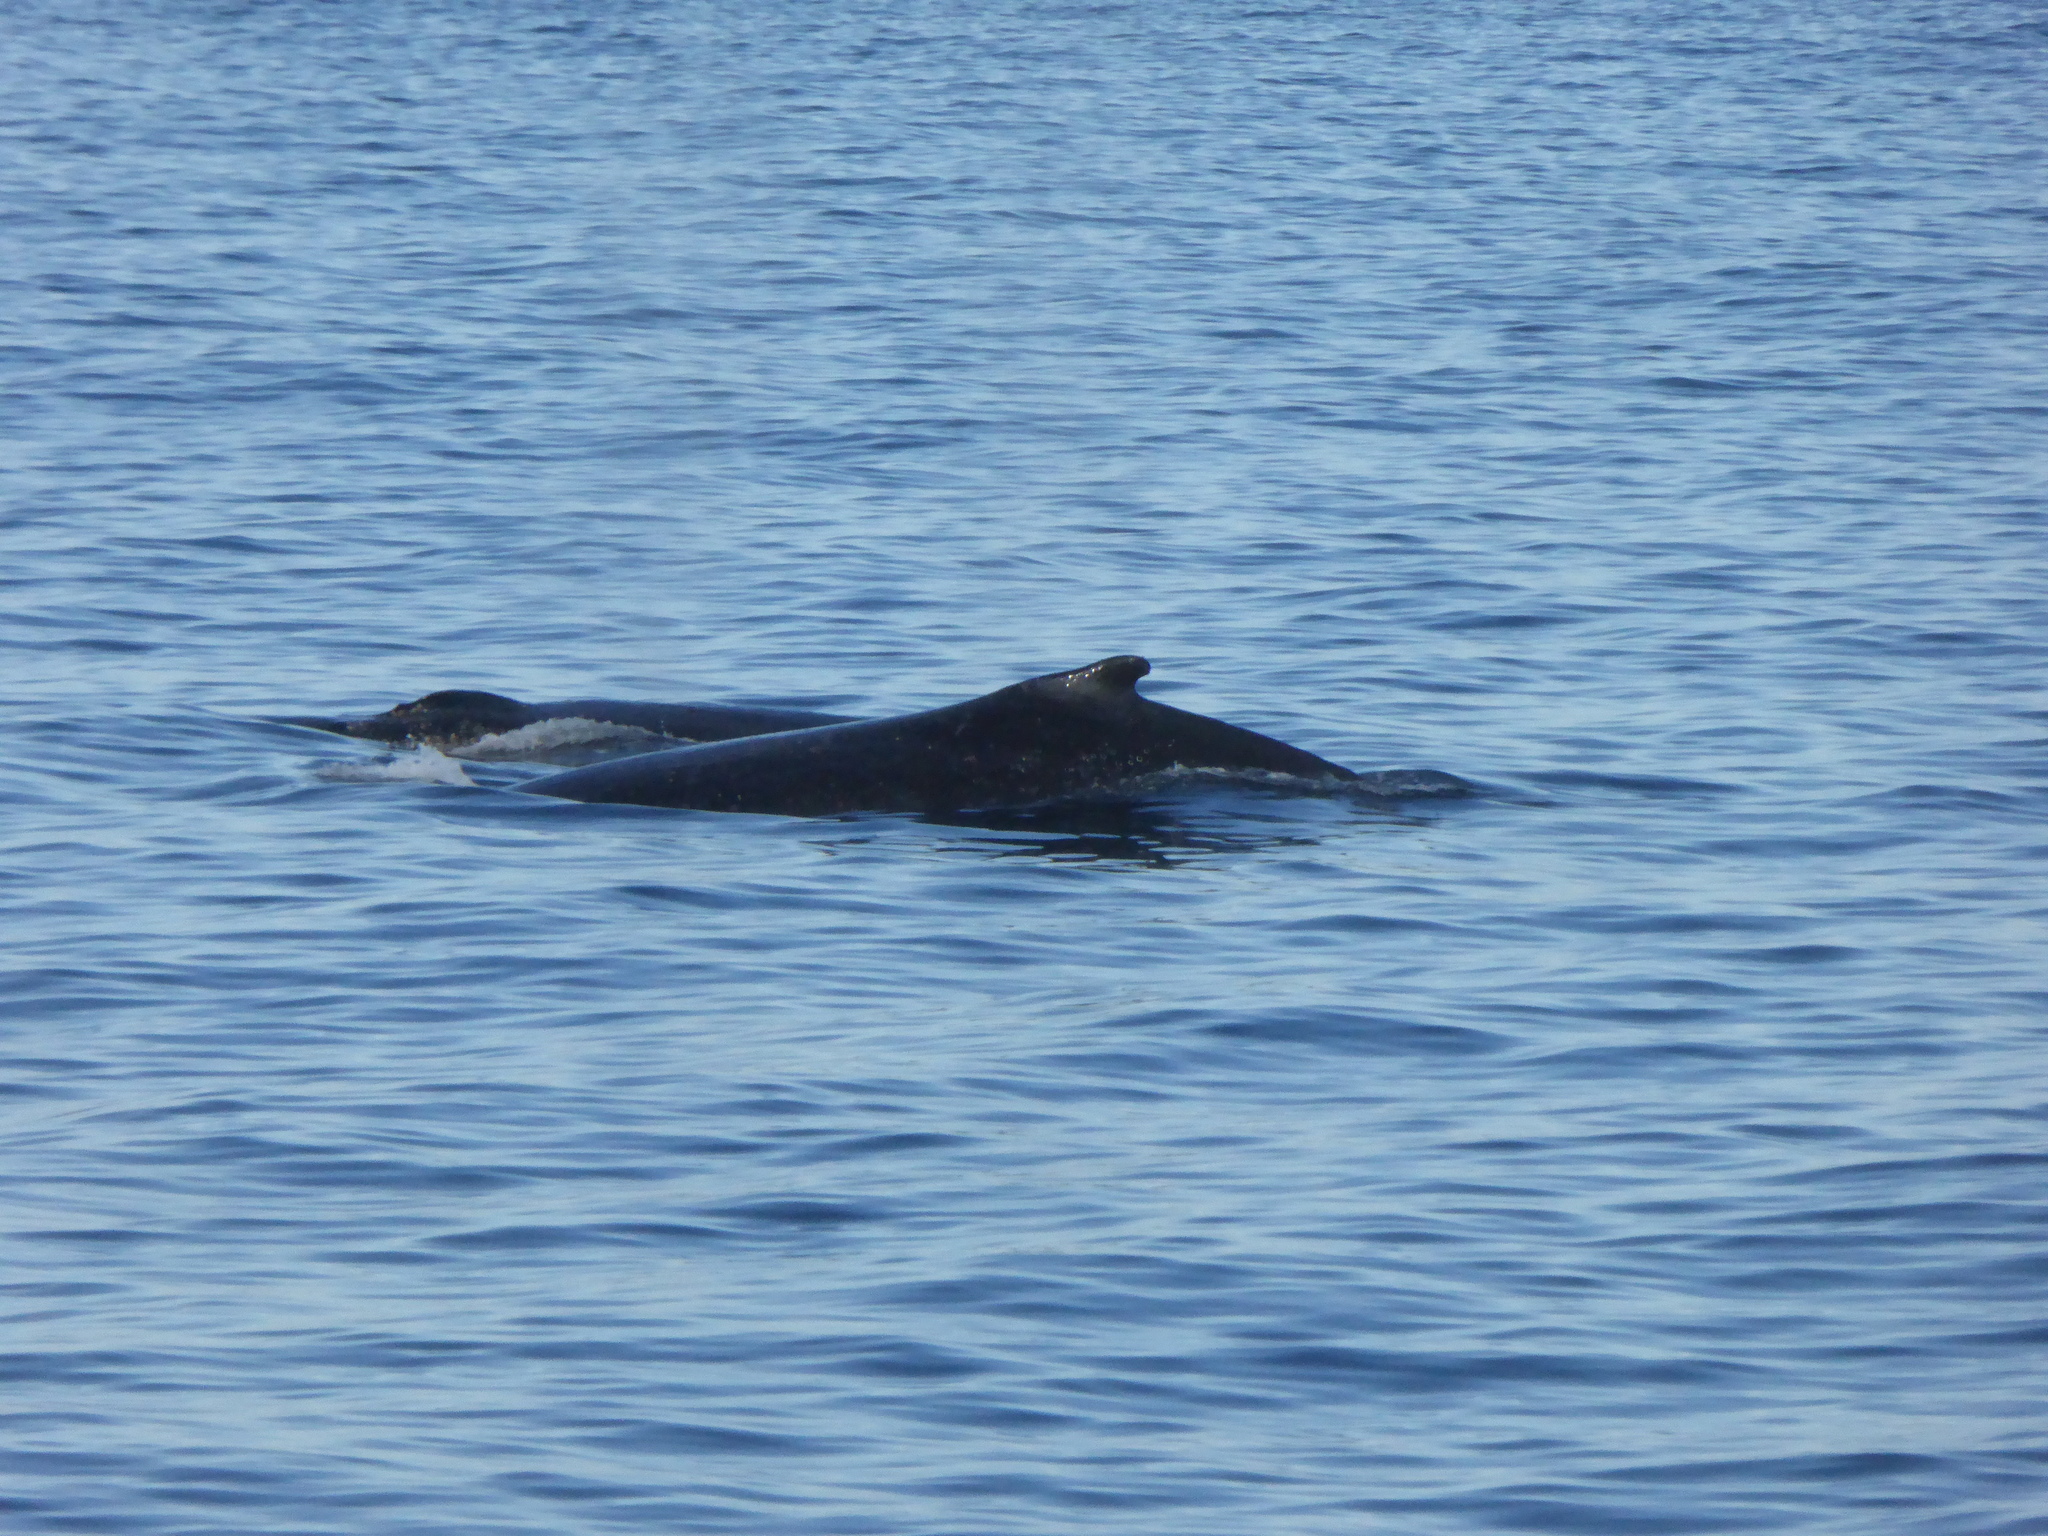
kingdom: Animalia
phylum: Chordata
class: Mammalia
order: Cetacea
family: Balaenopteridae
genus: Megaptera
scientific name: Megaptera novaeangliae
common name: Humpback whale
